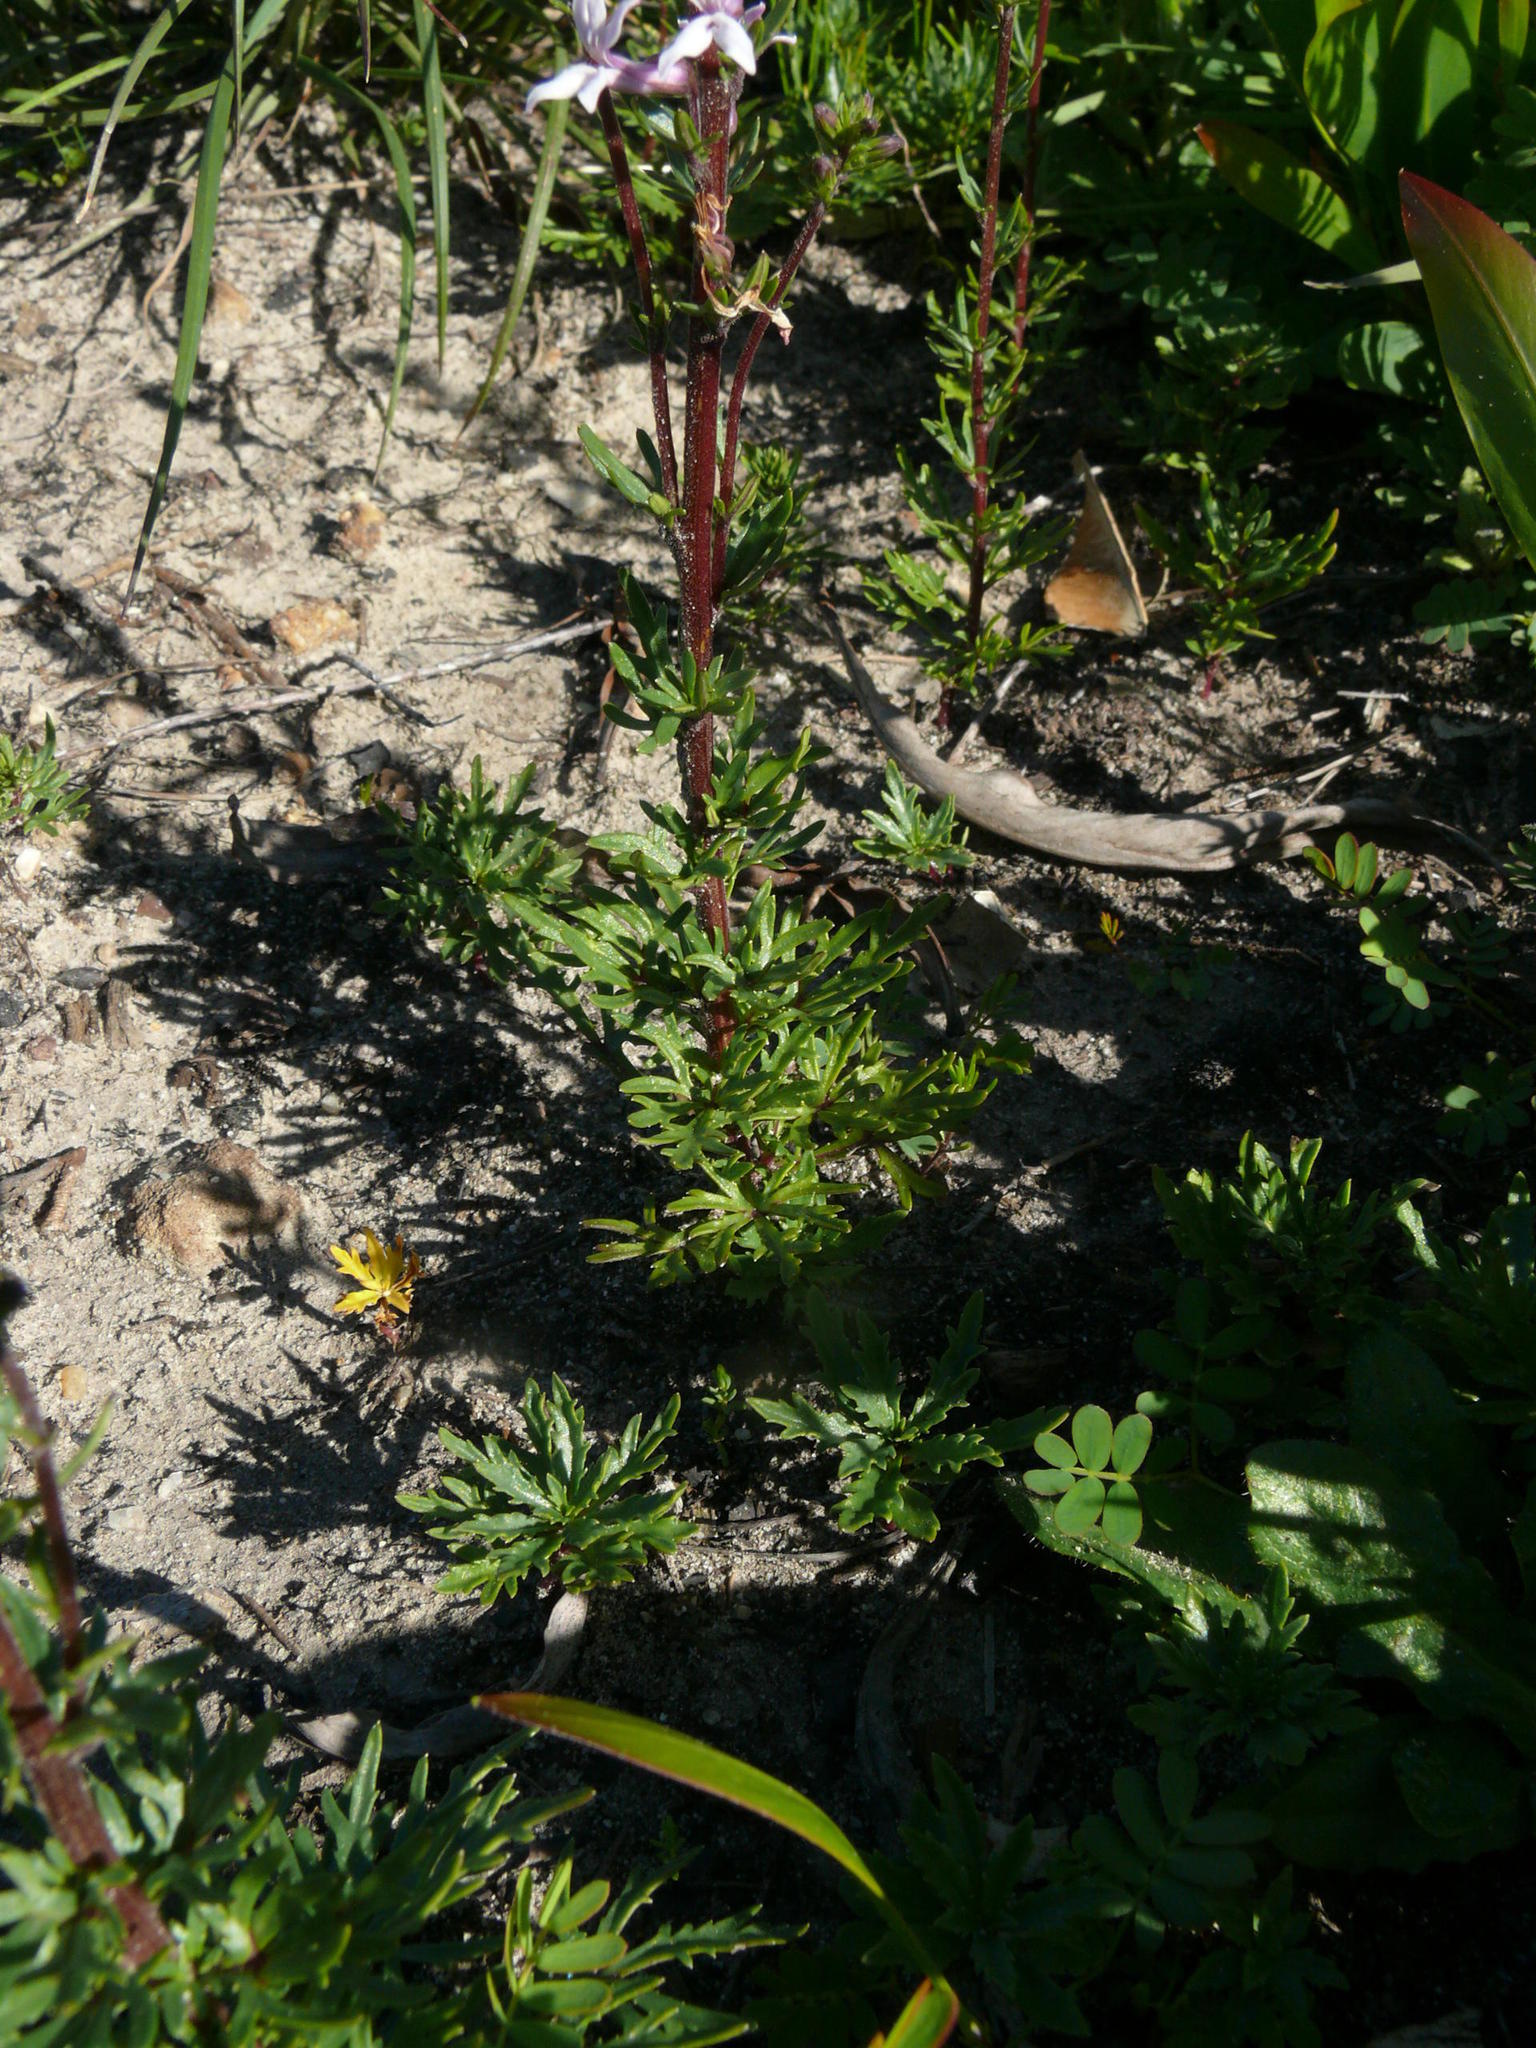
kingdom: Plantae
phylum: Tracheophyta
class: Magnoliopsida
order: Asterales
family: Campanulaceae
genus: Cyphia
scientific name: Cyphia bulbosa
